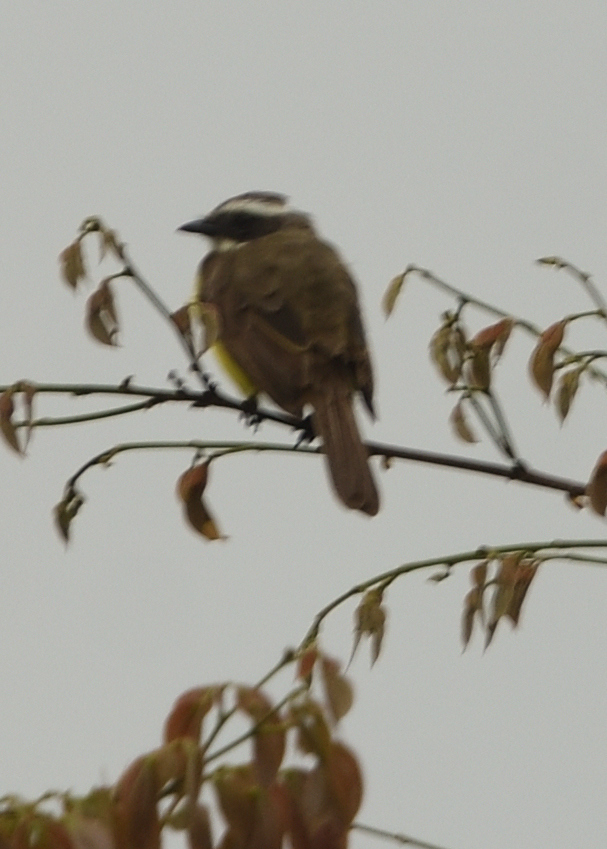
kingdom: Animalia
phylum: Chordata
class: Aves
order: Passeriformes
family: Tyrannidae
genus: Myiozetetes
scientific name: Myiozetetes similis
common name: Social flycatcher
